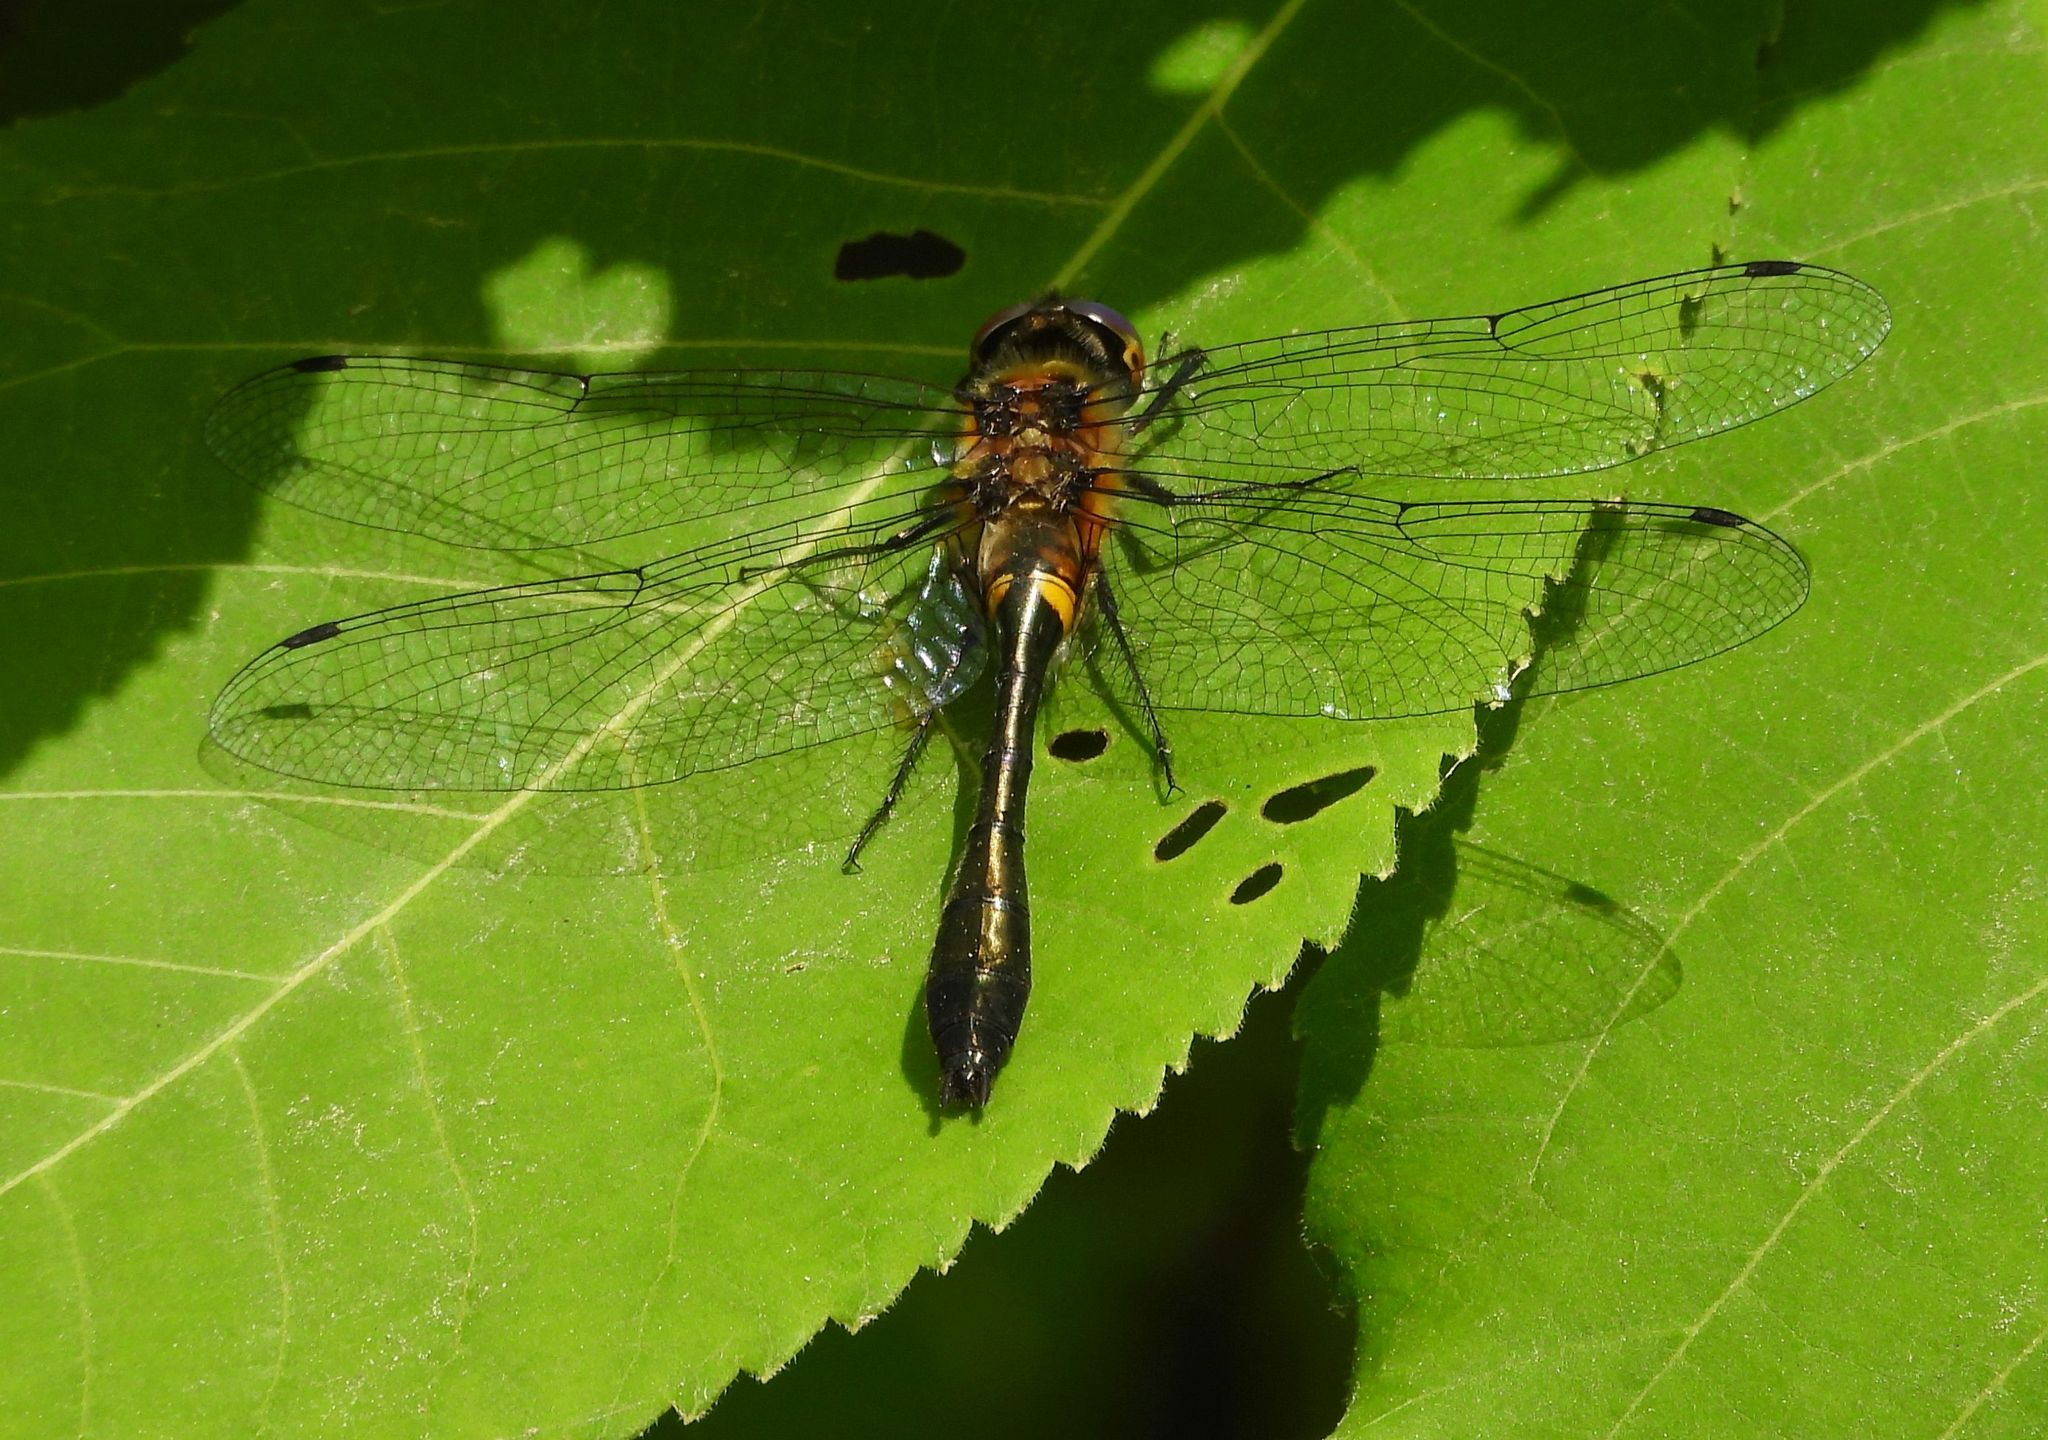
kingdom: Animalia
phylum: Arthropoda
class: Insecta
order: Odonata
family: Corduliidae
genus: Dorocordulia
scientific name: Dorocordulia libera
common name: Racket-tailed emerald
